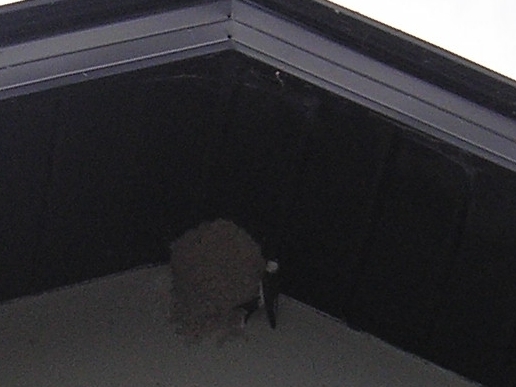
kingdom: Animalia
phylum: Chordata
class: Aves
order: Passeriformes
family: Hirundinidae
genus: Delichon
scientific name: Delichon urbicum
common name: Common house martin
